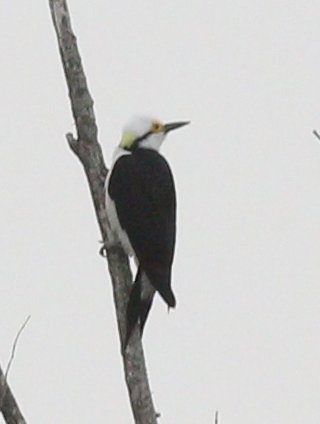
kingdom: Animalia
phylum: Chordata
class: Aves
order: Piciformes
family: Picidae
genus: Melanerpes
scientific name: Melanerpes candidus
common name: White woodpecker
